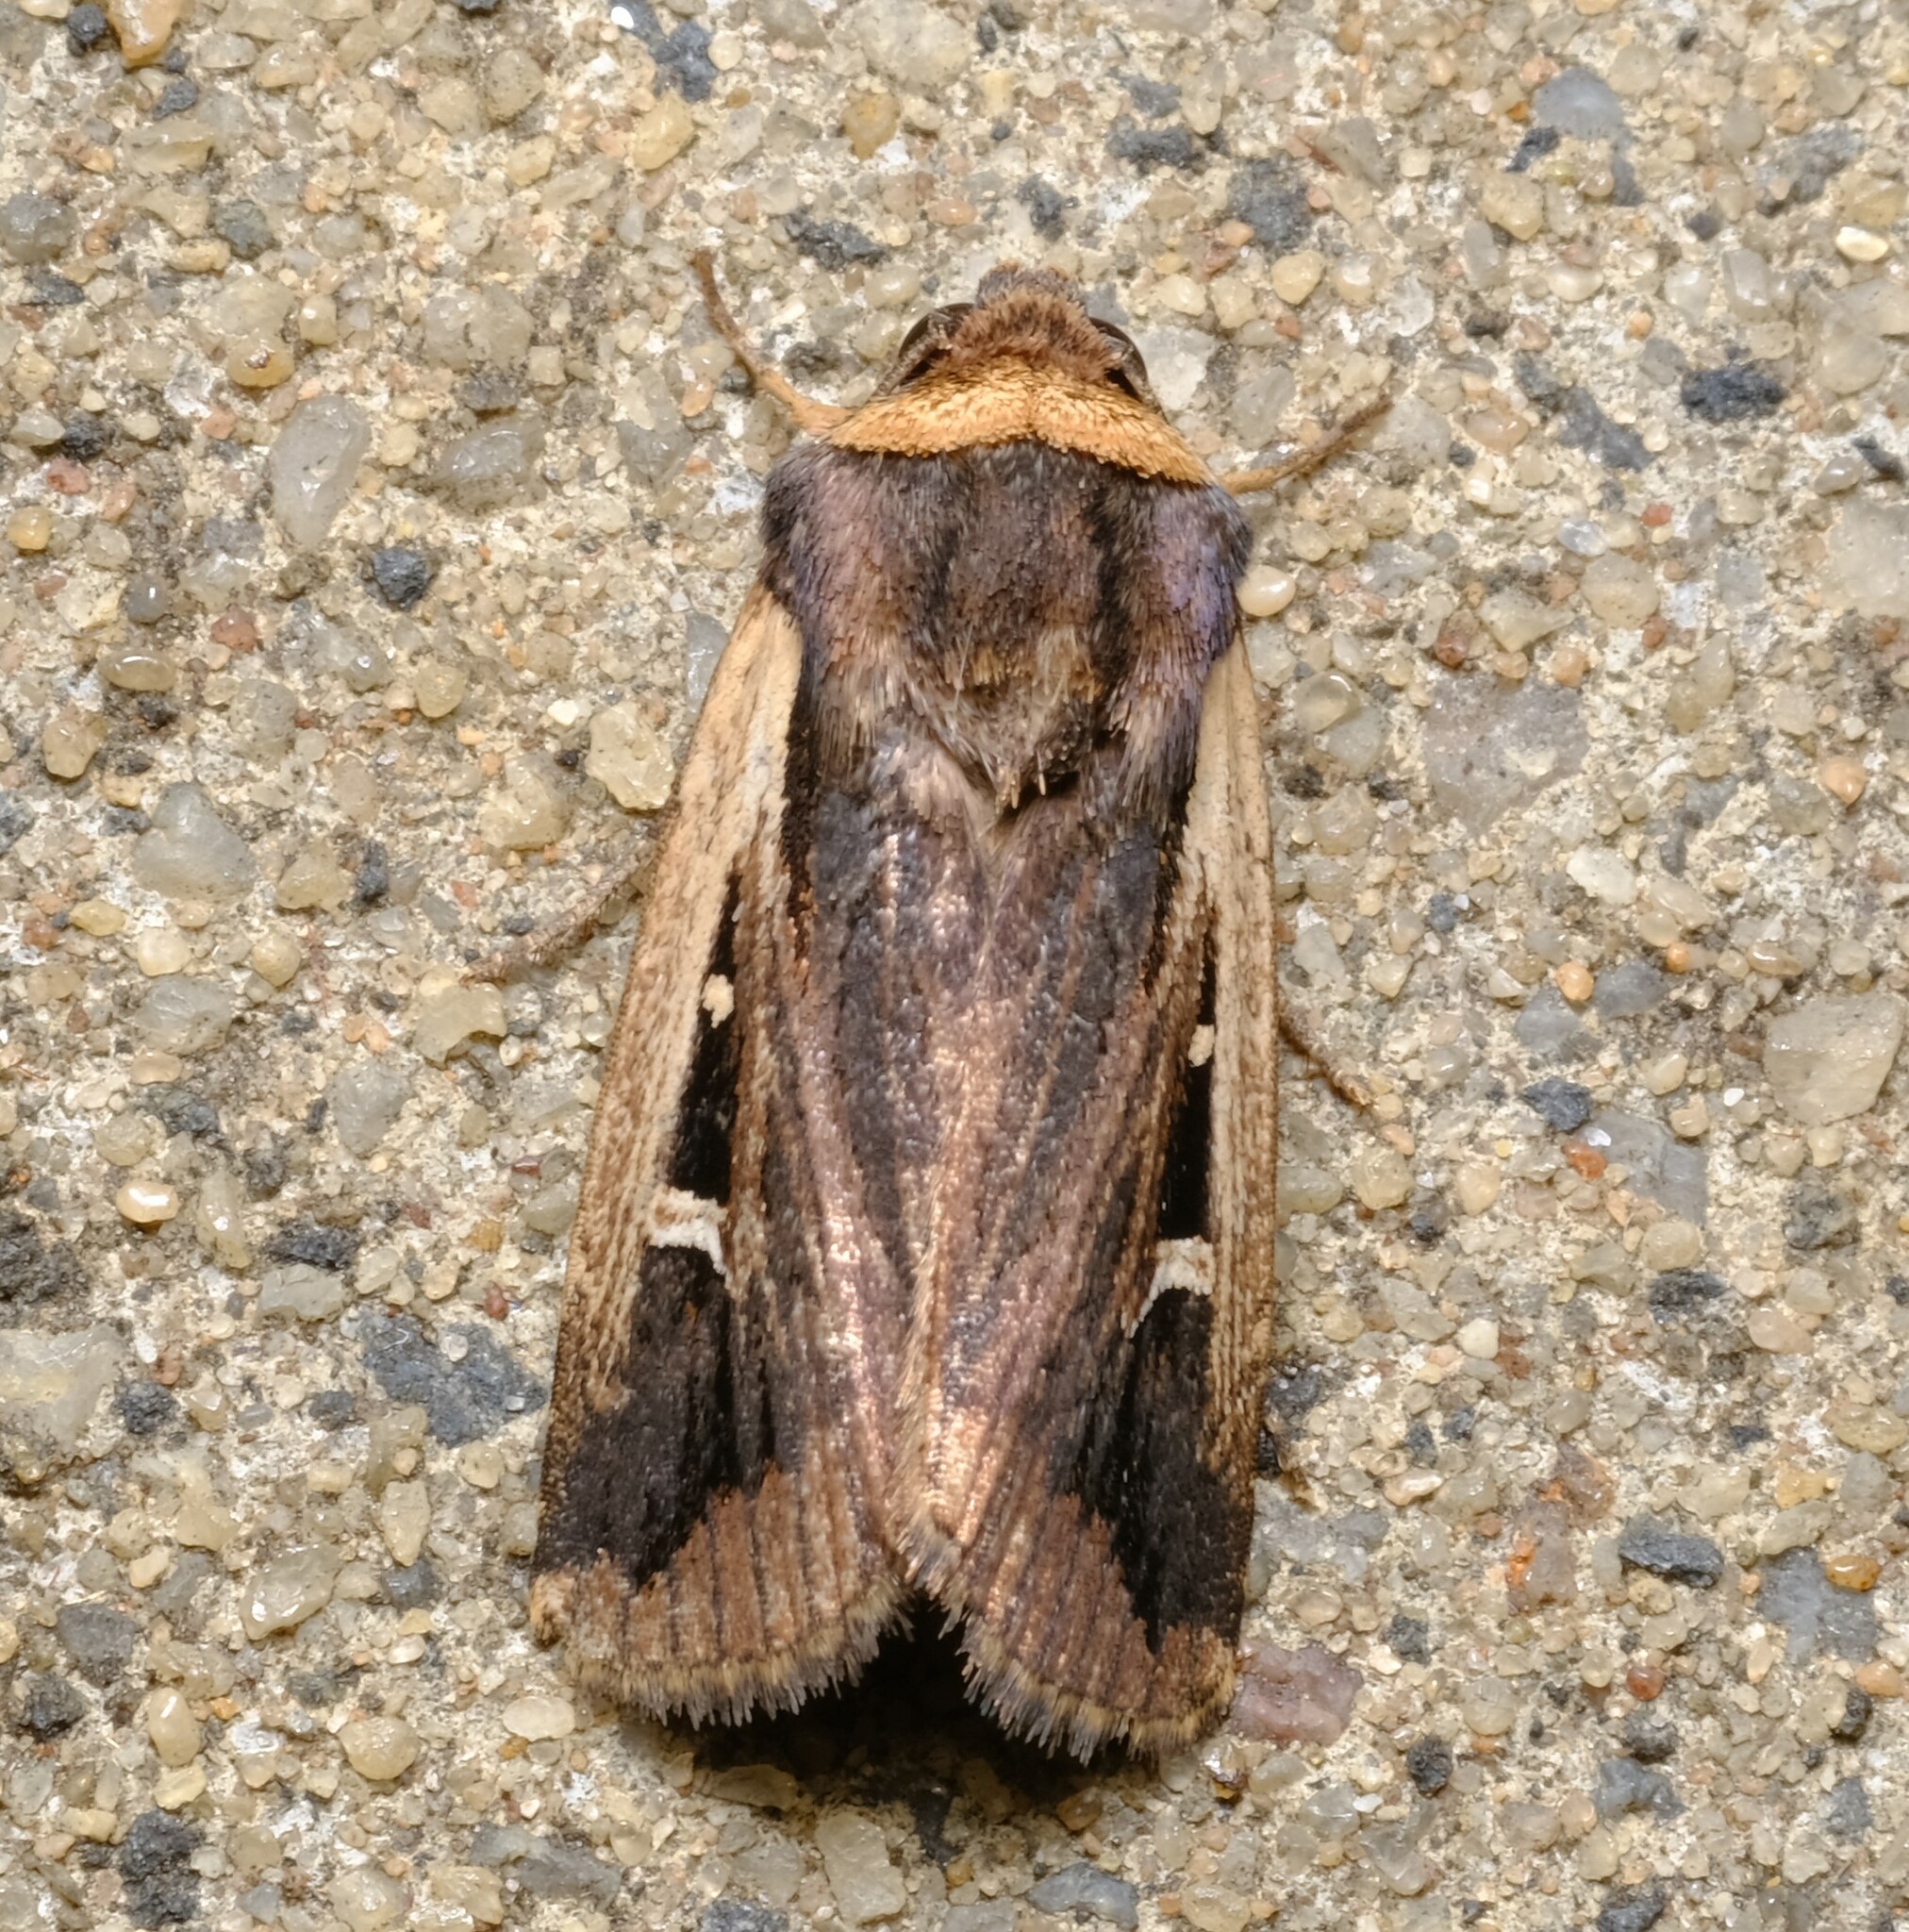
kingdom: Animalia
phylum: Arthropoda
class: Insecta
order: Lepidoptera
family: Noctuidae
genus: Proteuxoa
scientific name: Proteuxoa tortisigna
